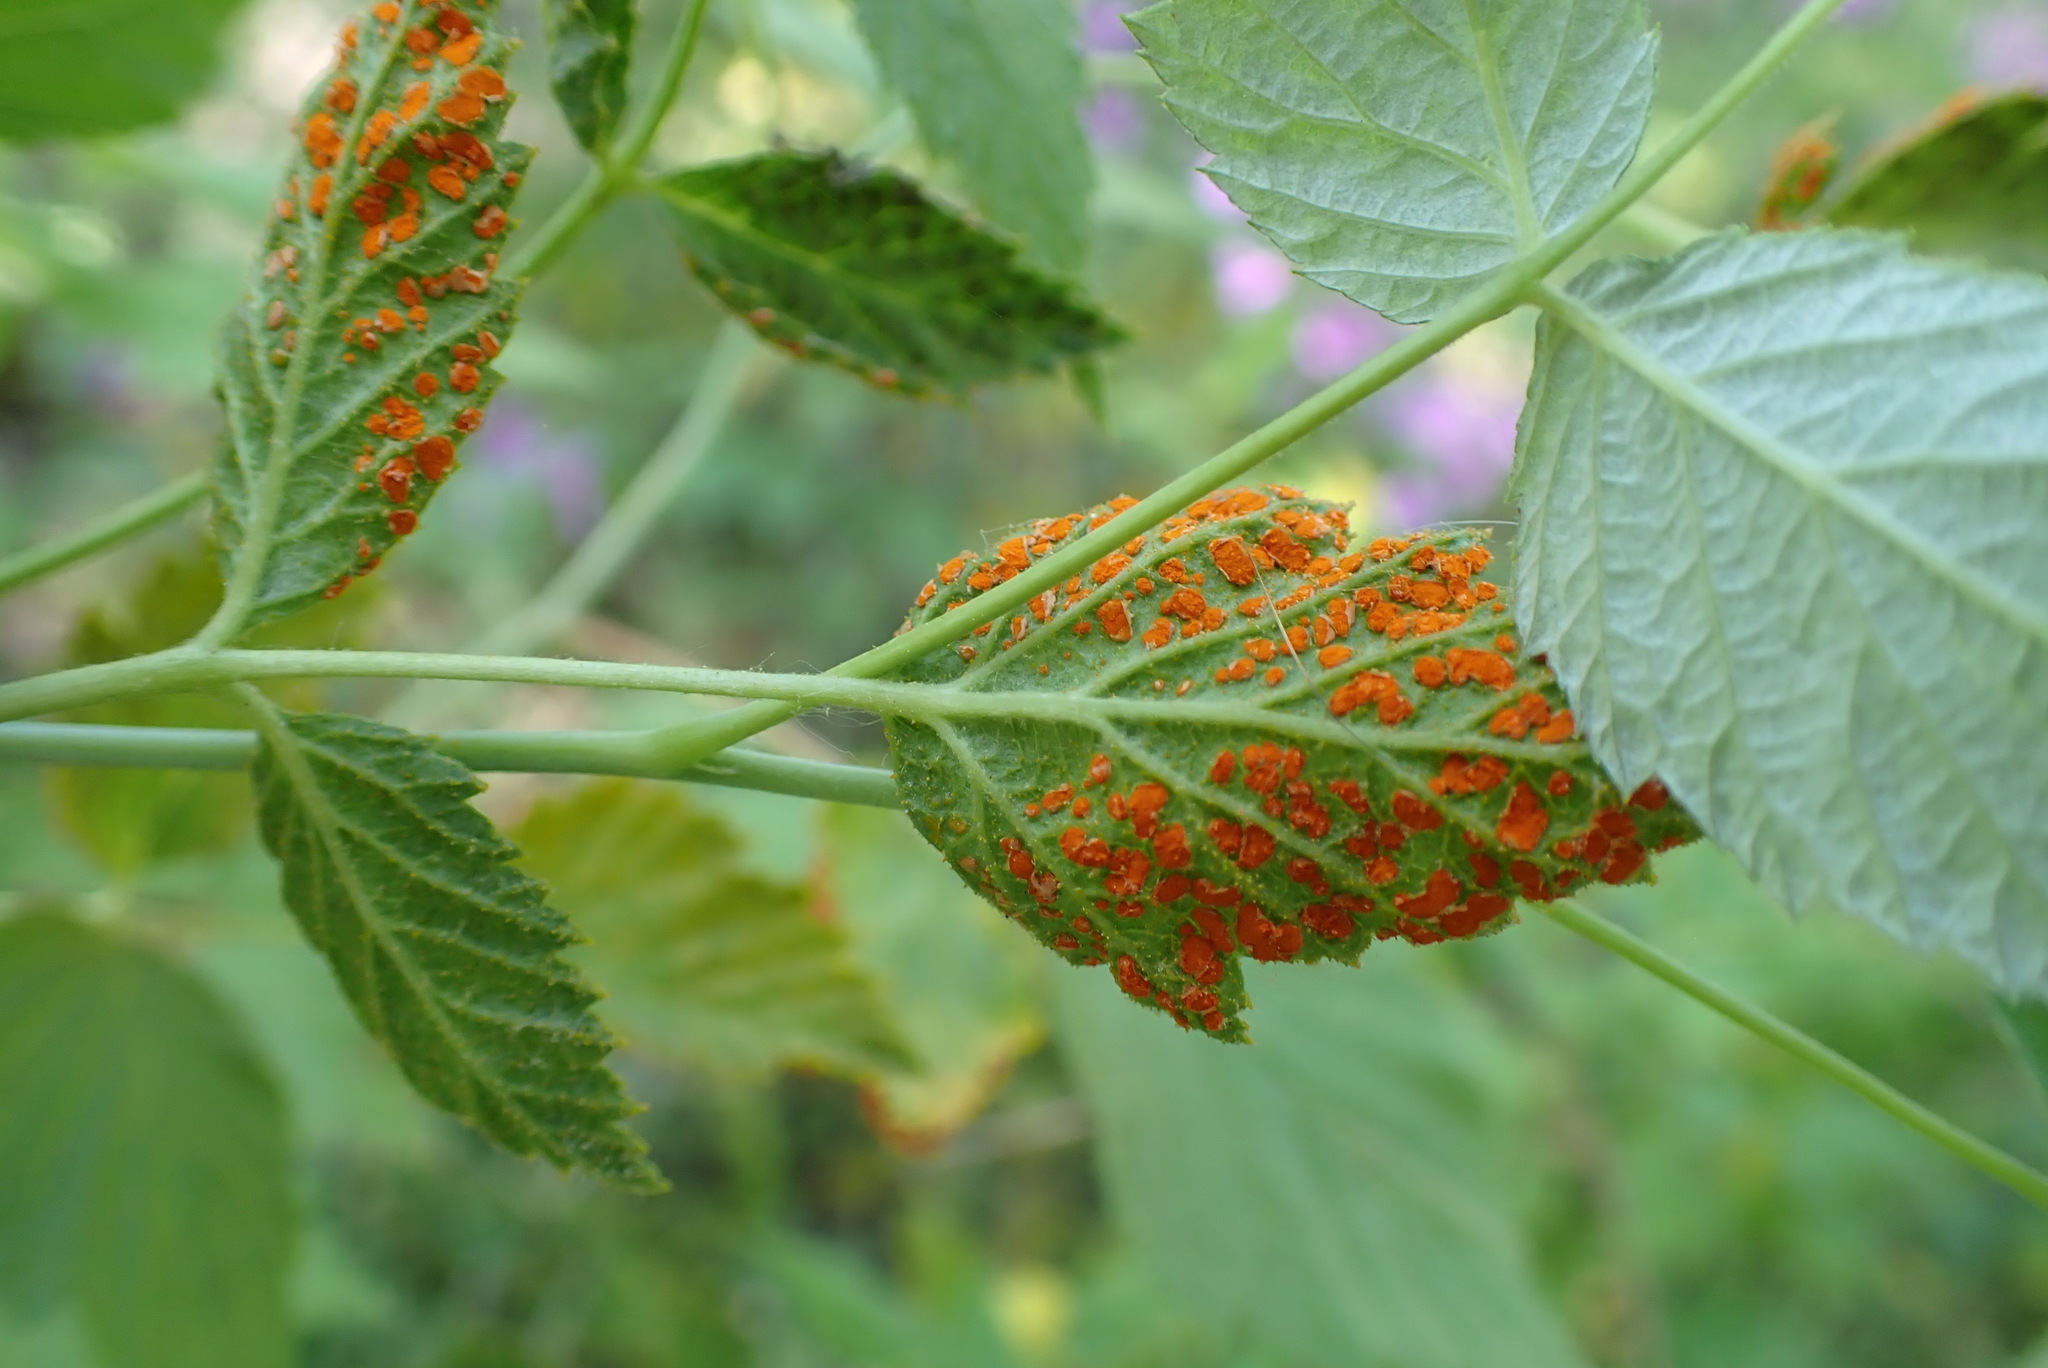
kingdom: Fungi
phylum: Basidiomycota
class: Pucciniomycetes
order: Pucciniales
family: Phragmidiaceae
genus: Arthuriomyces
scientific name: Arthuriomyces peckianus
